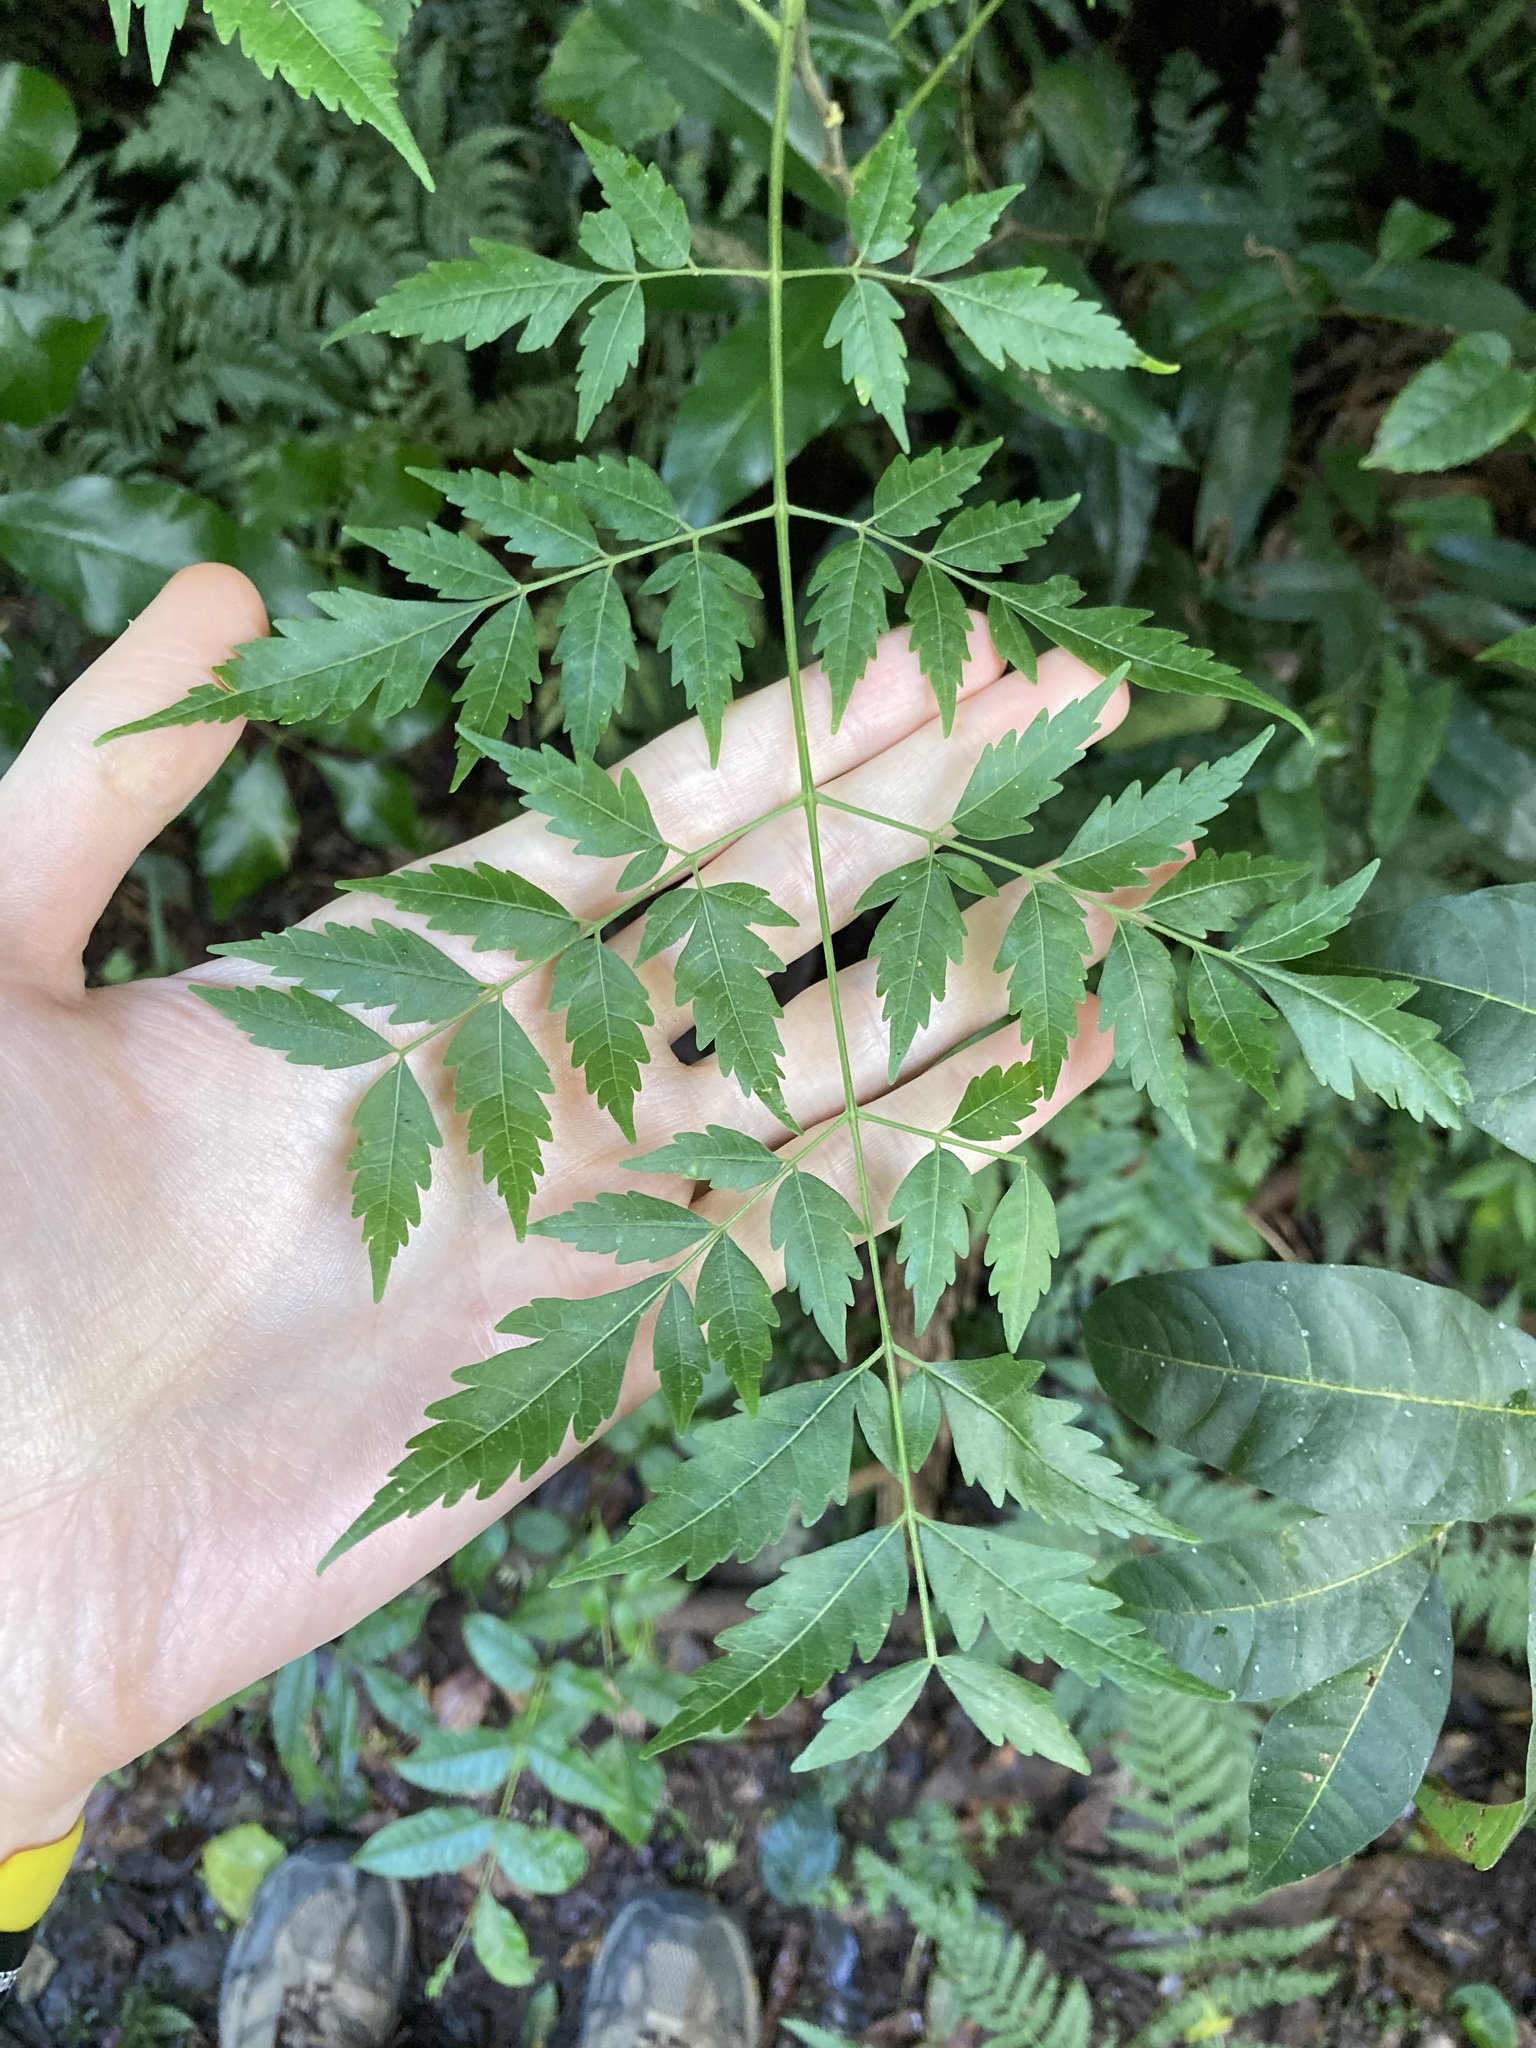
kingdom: Plantae
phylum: Tracheophyta
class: Magnoliopsida
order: Sapindales
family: Meliaceae
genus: Melia
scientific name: Melia azedarach
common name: Chinaberrytree
